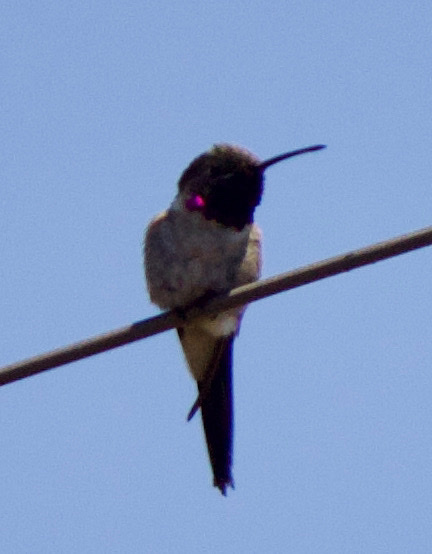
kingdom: Animalia
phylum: Chordata
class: Aves
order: Apodiformes
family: Trochilidae
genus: Rhodopis
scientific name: Rhodopis vesper
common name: Oasis hummingbird
